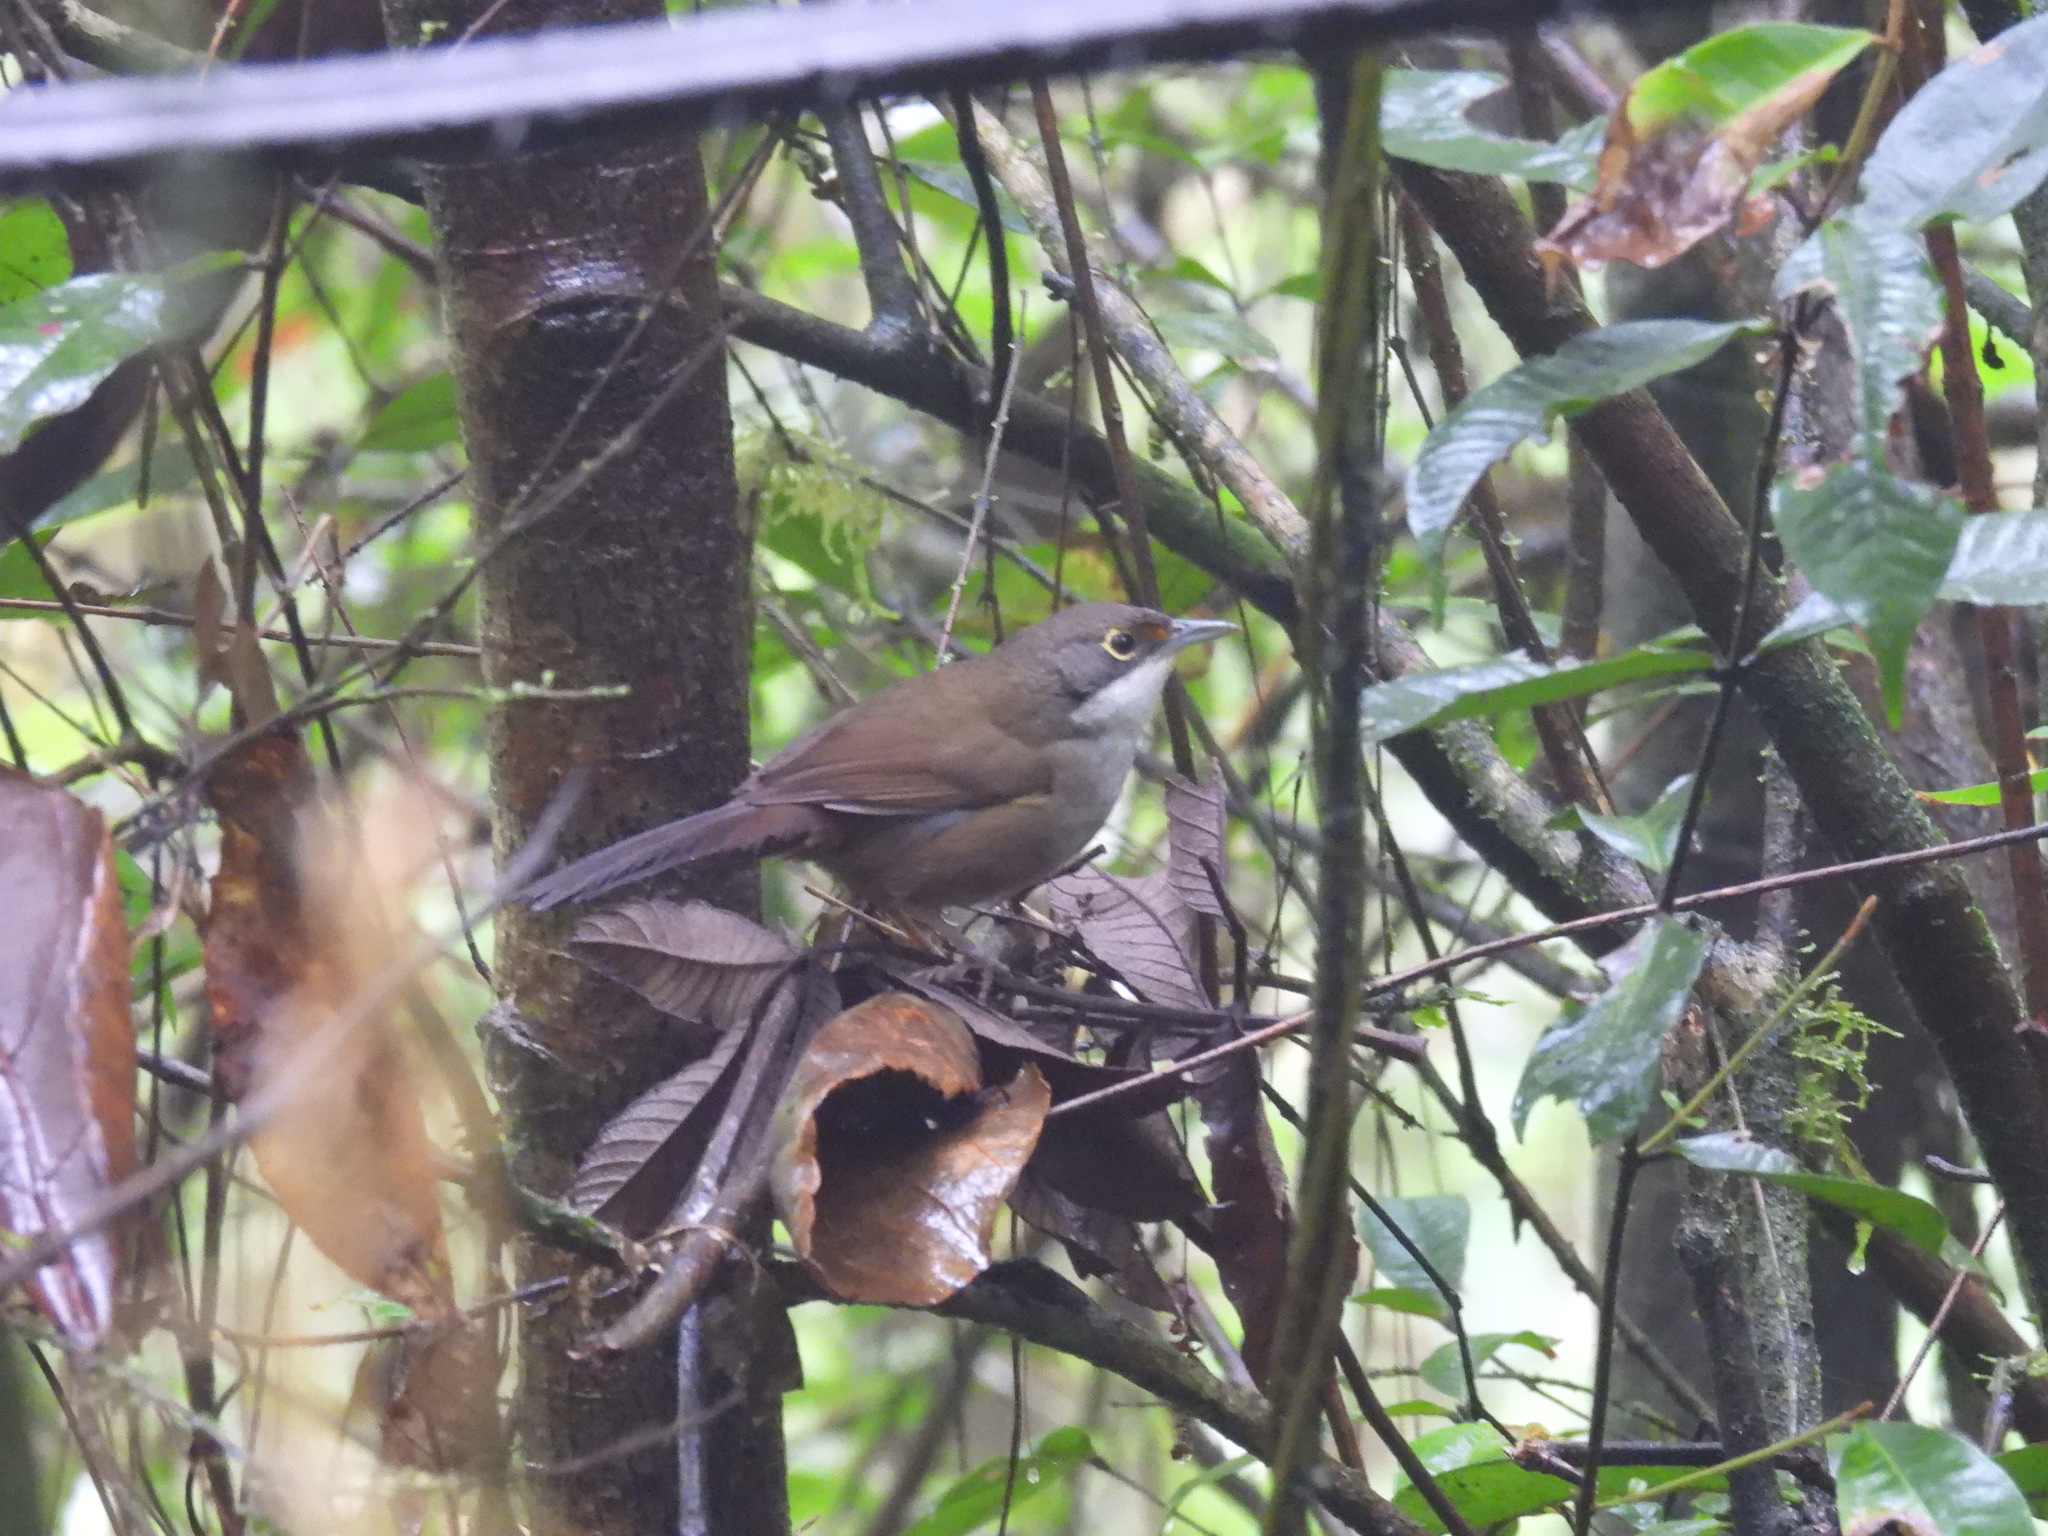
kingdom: Animalia
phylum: Chordata
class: Aves
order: Passeriformes
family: Calyptophilidae
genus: Calyptophilus
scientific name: Calyptophilus frugivorus
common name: Eastern chat-tanager
